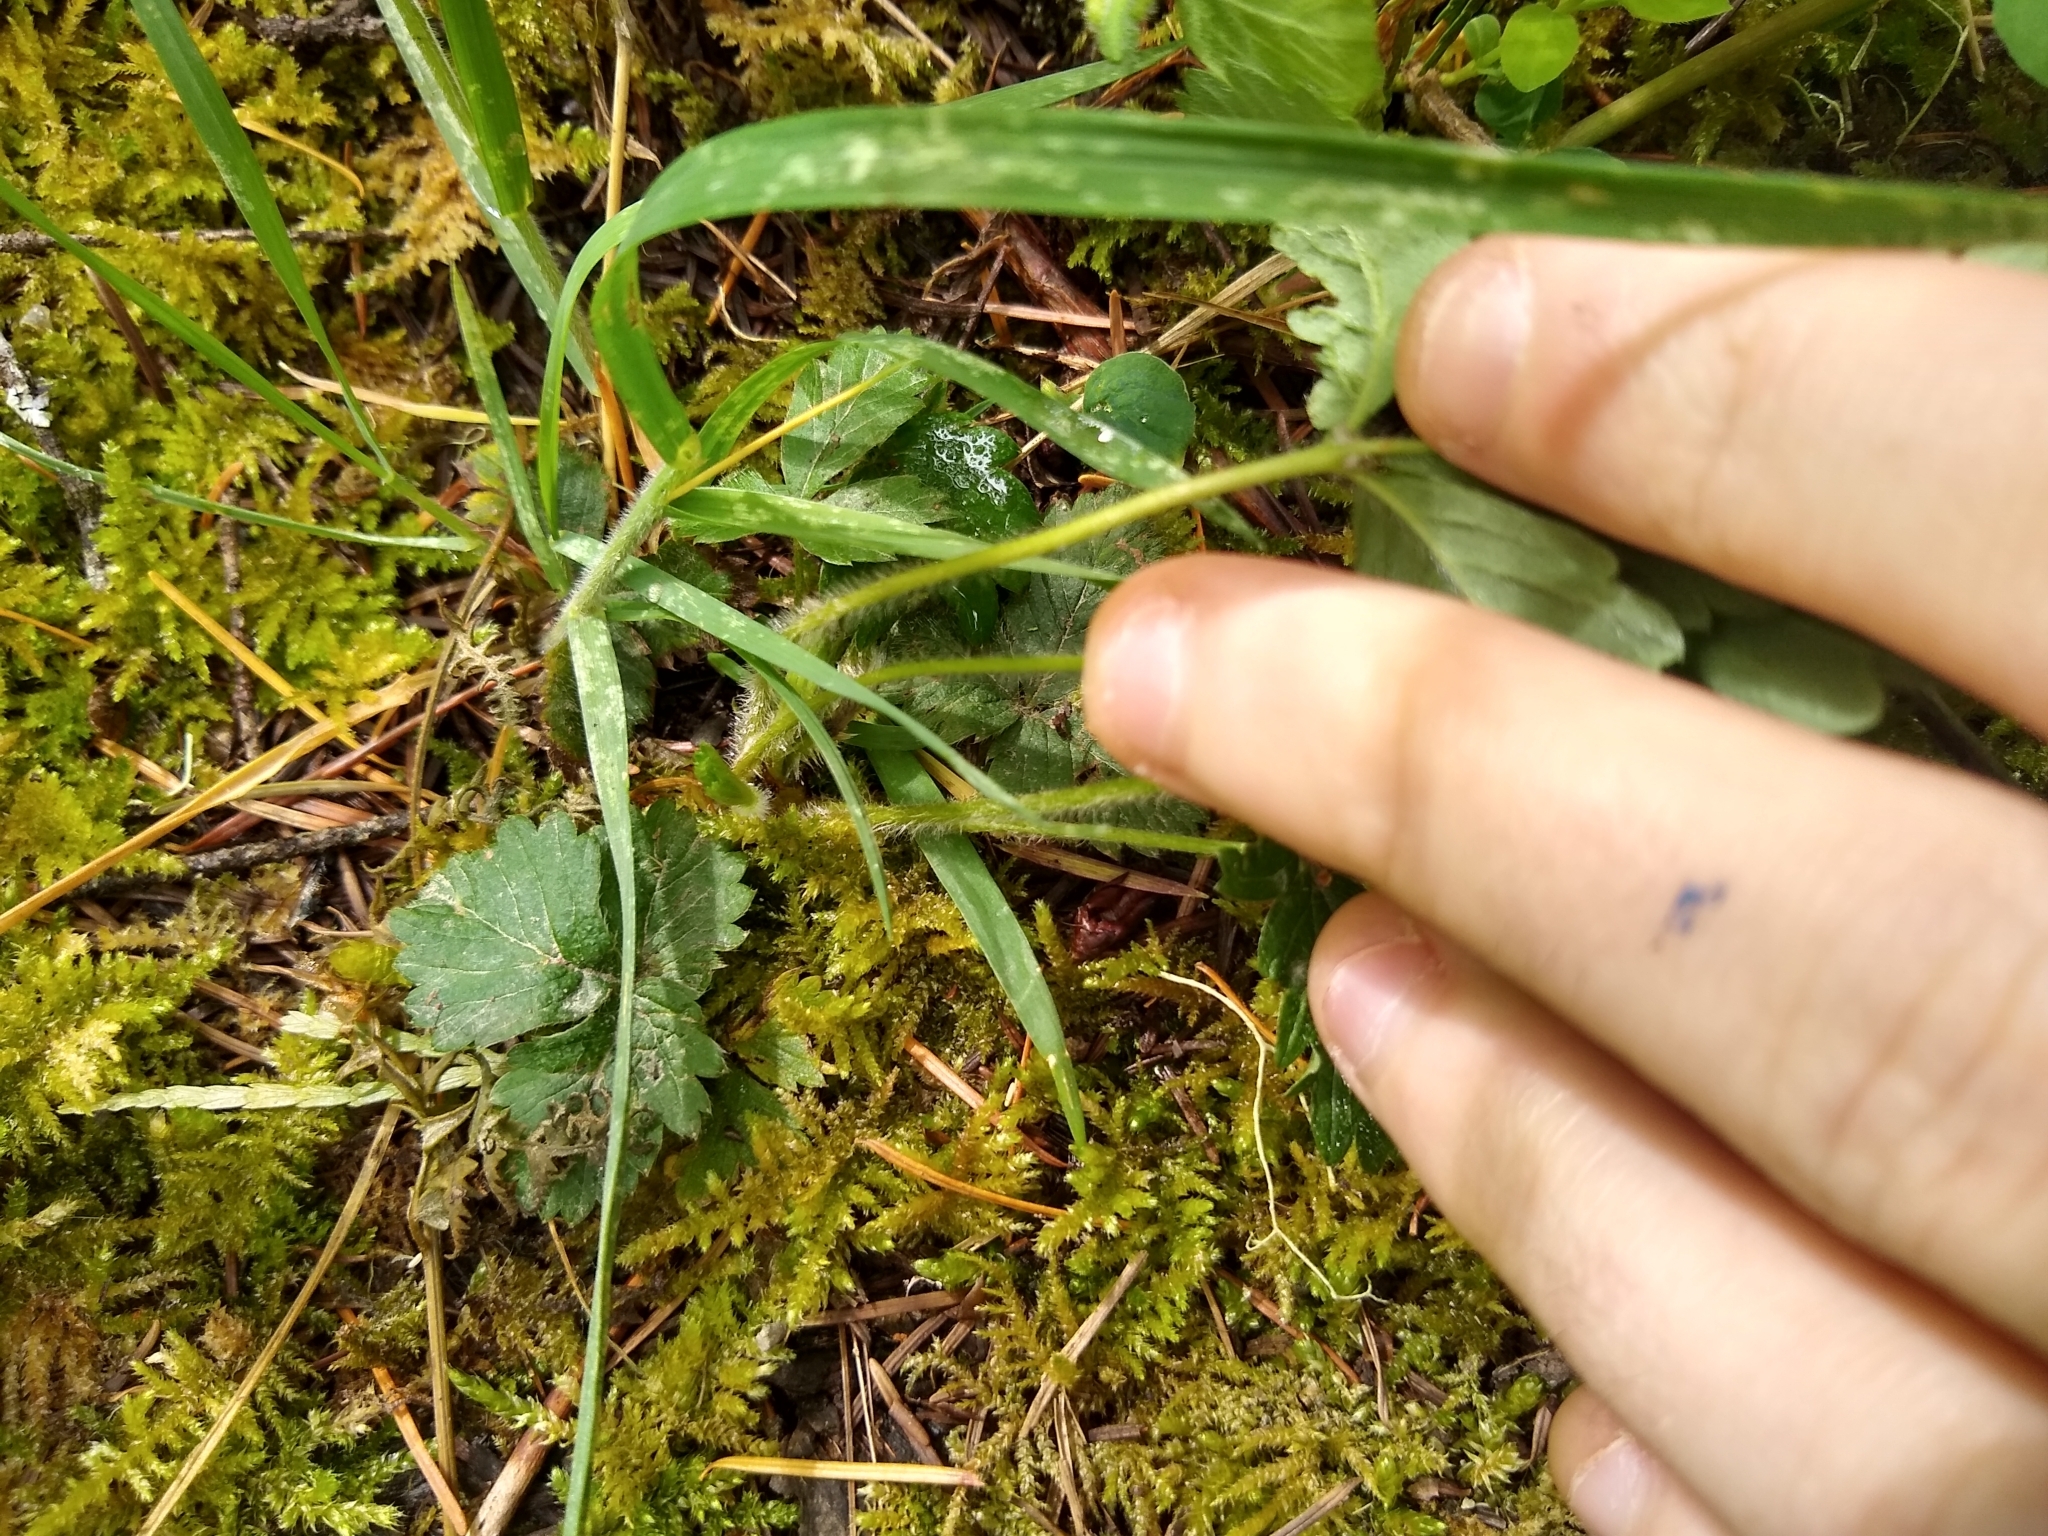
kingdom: Plantae
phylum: Tracheophyta
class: Magnoliopsida
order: Rosales
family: Rosaceae
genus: Fragaria
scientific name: Fragaria vesca
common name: Wild strawberry
